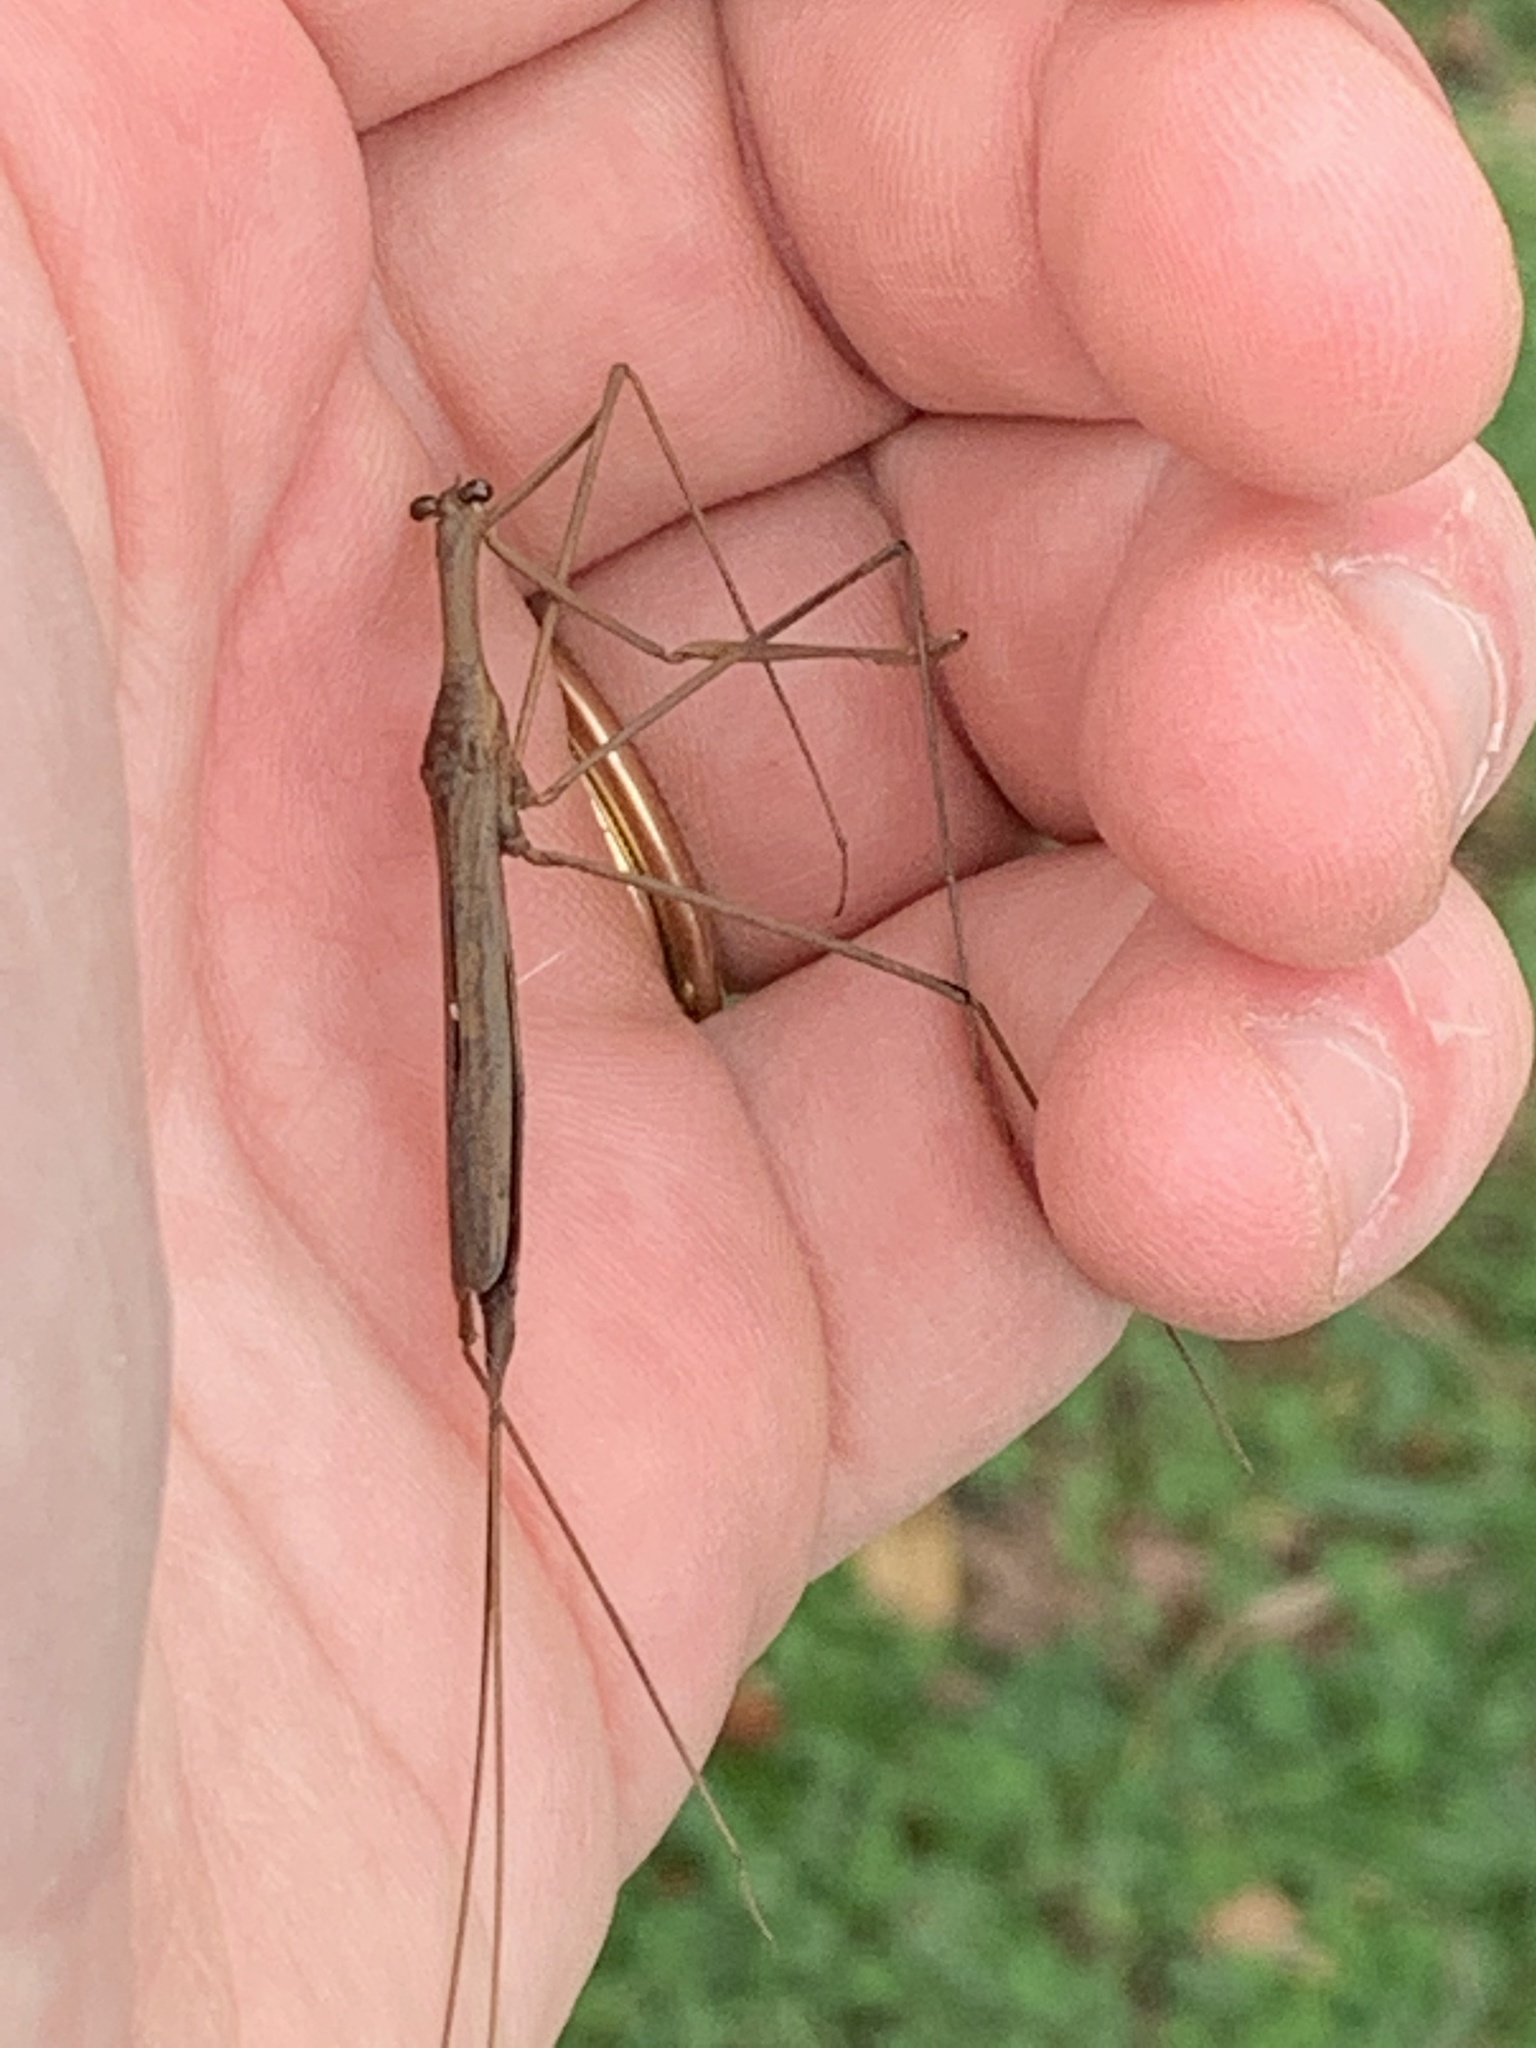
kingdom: Animalia
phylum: Arthropoda
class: Insecta
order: Hemiptera
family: Nepidae
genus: Ranatra
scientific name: Ranatra
